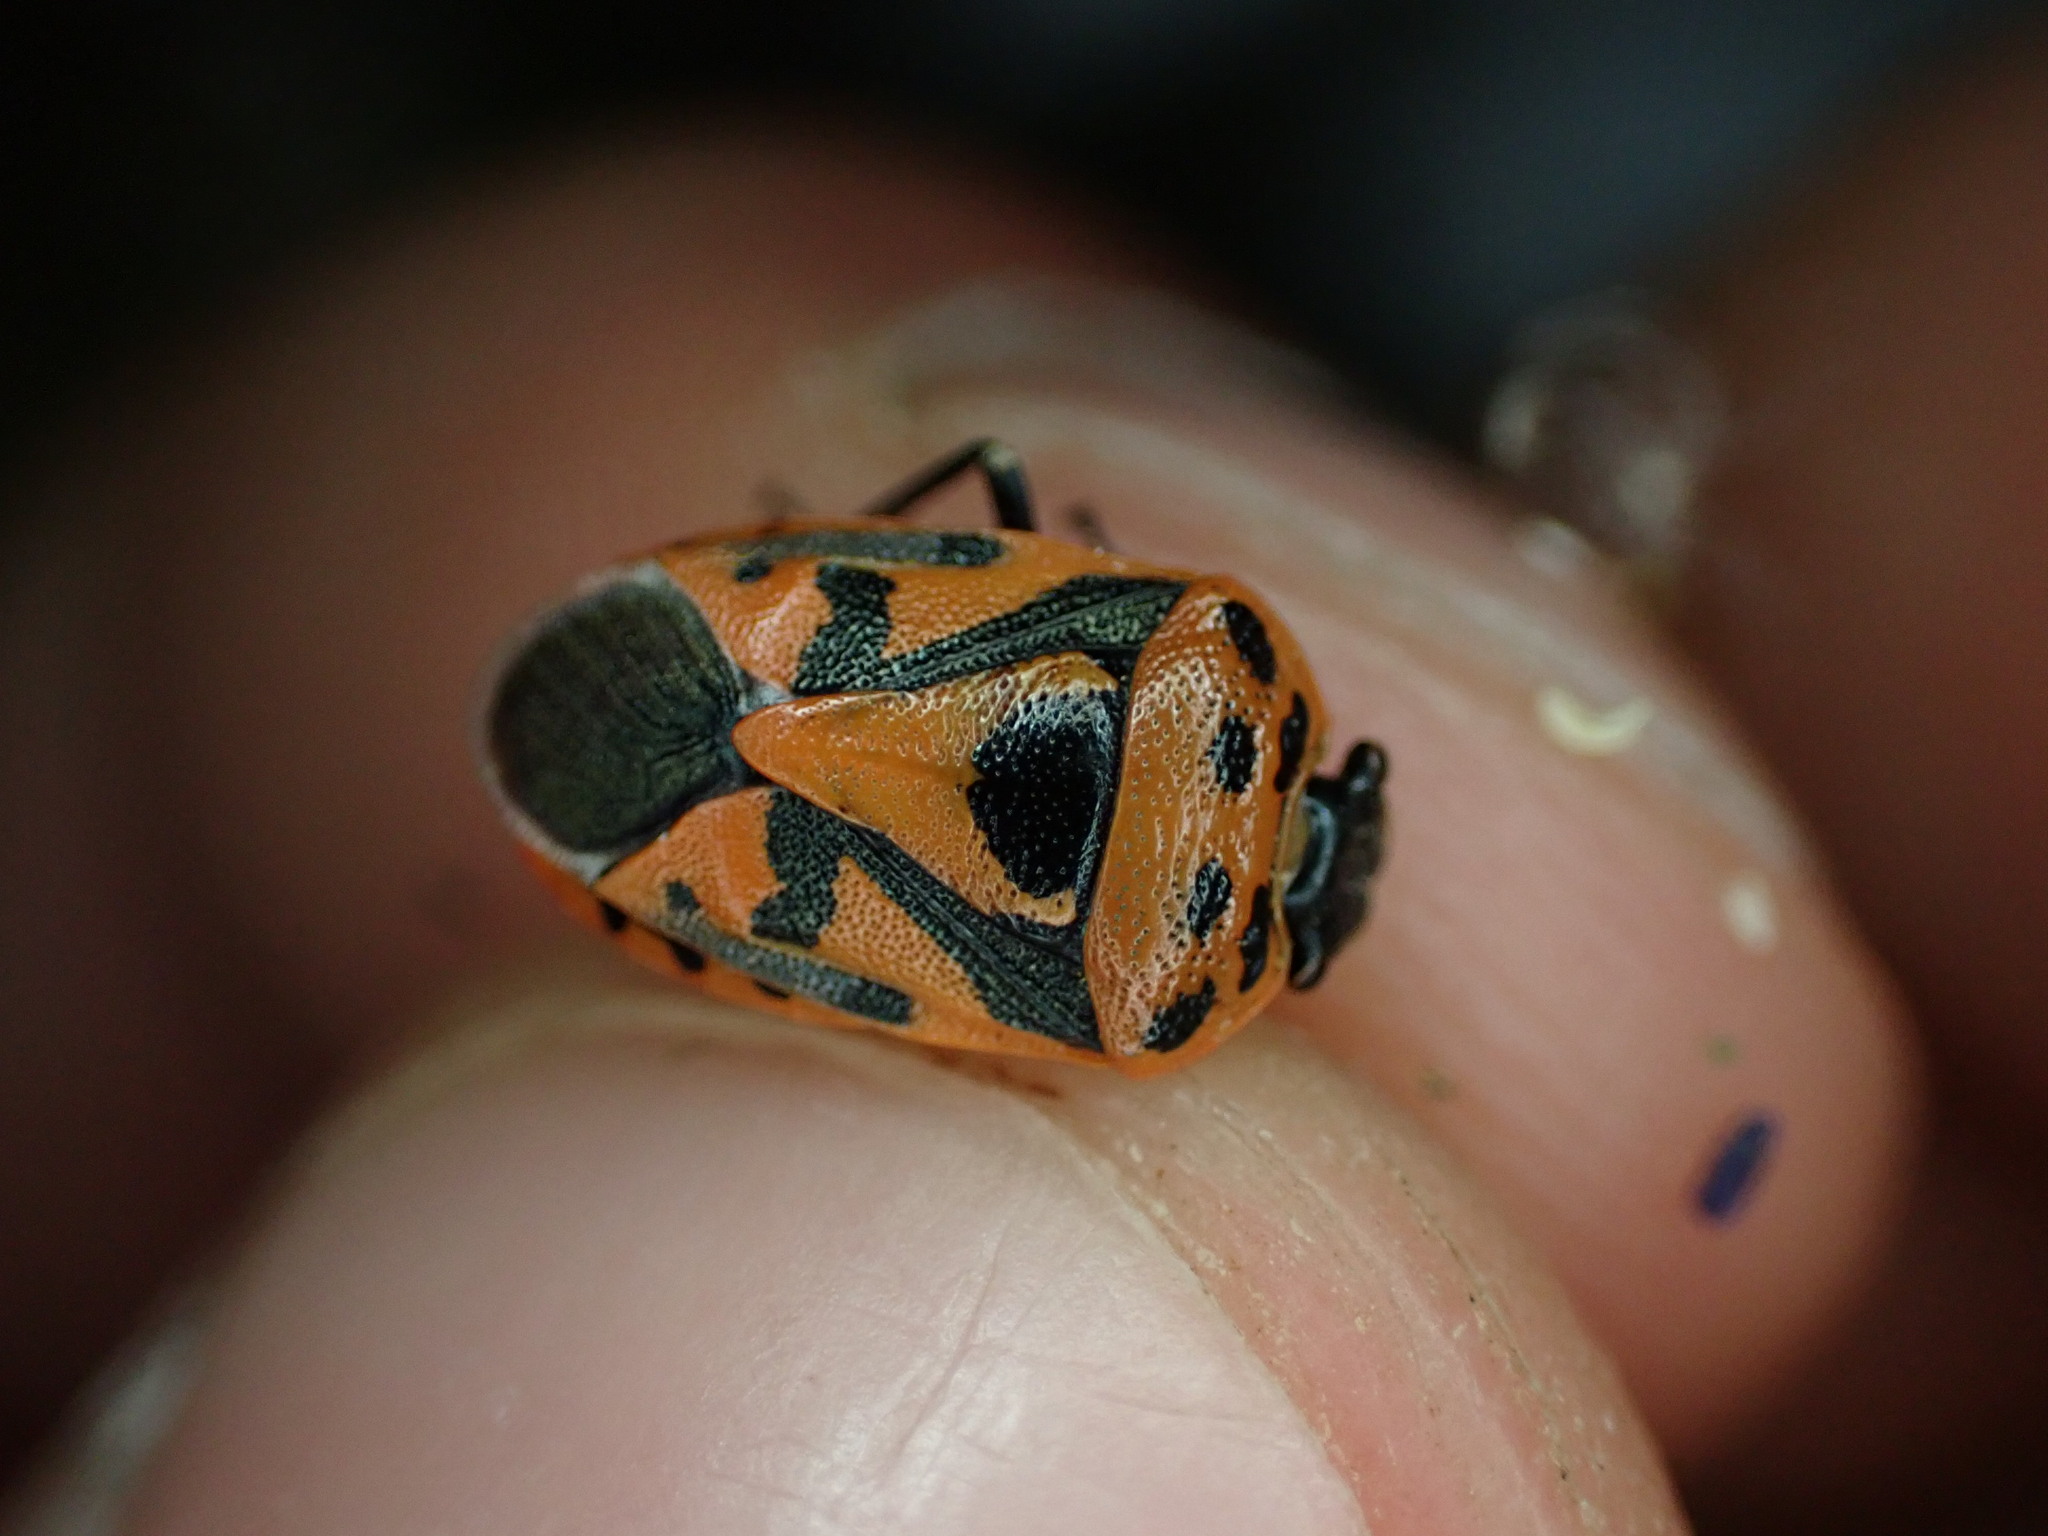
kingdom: Animalia
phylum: Arthropoda
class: Insecta
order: Hemiptera
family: Pentatomidae
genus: Eurydema
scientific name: Eurydema ornata
